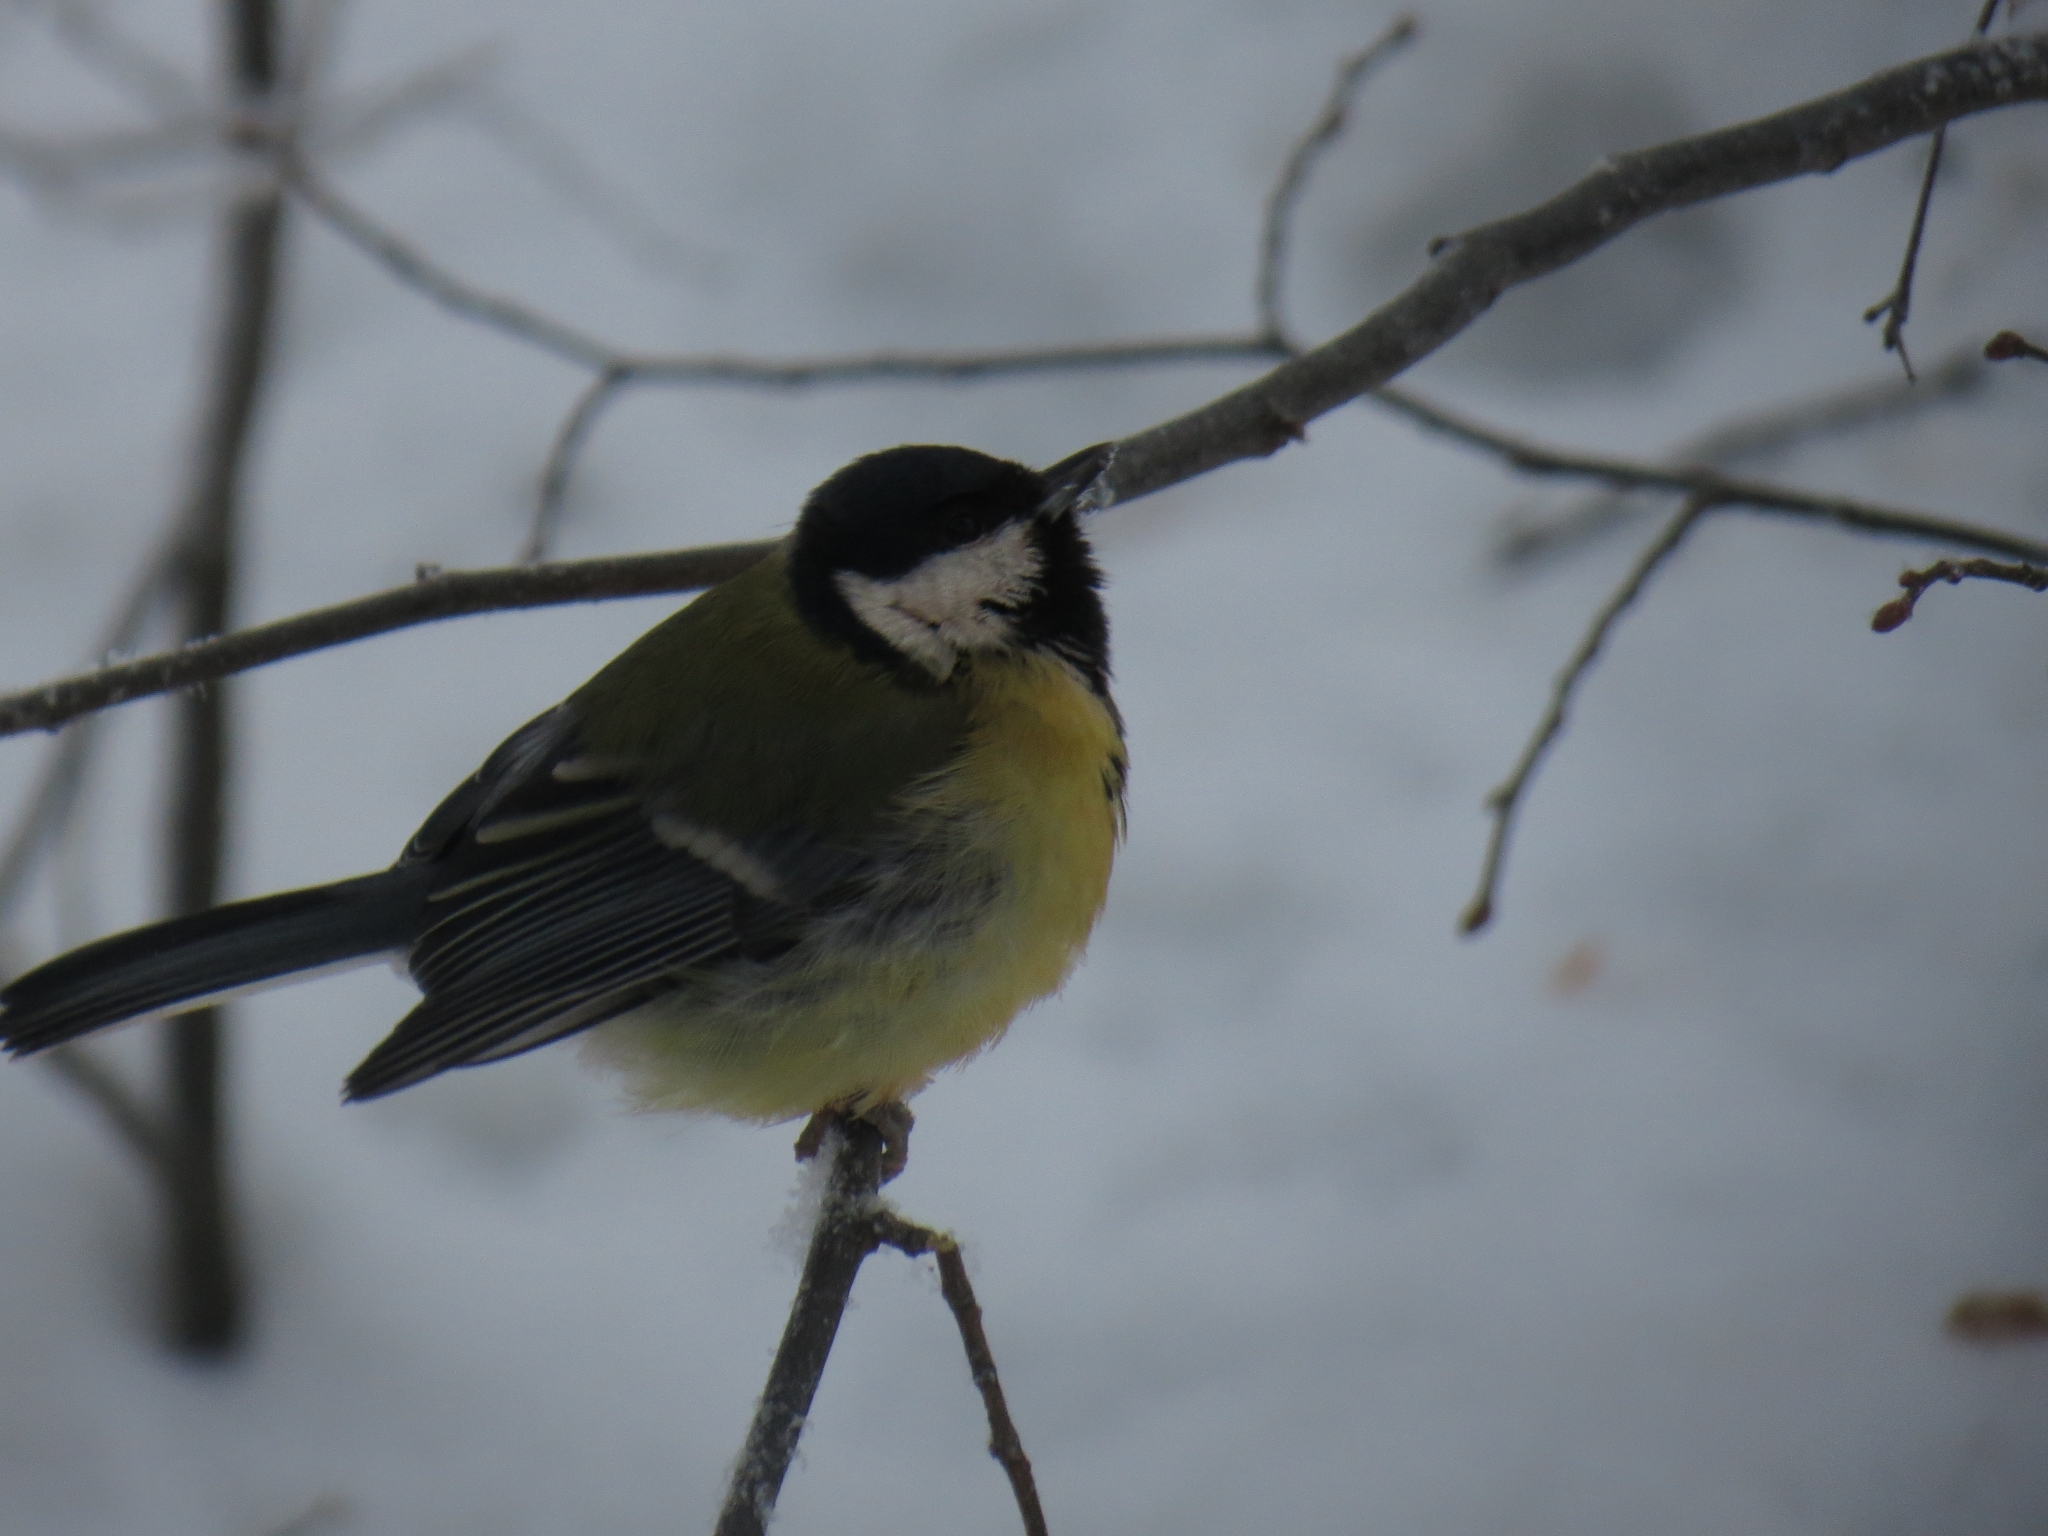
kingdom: Animalia
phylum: Chordata
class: Aves
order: Passeriformes
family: Paridae
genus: Parus
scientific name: Parus major
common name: Great tit
